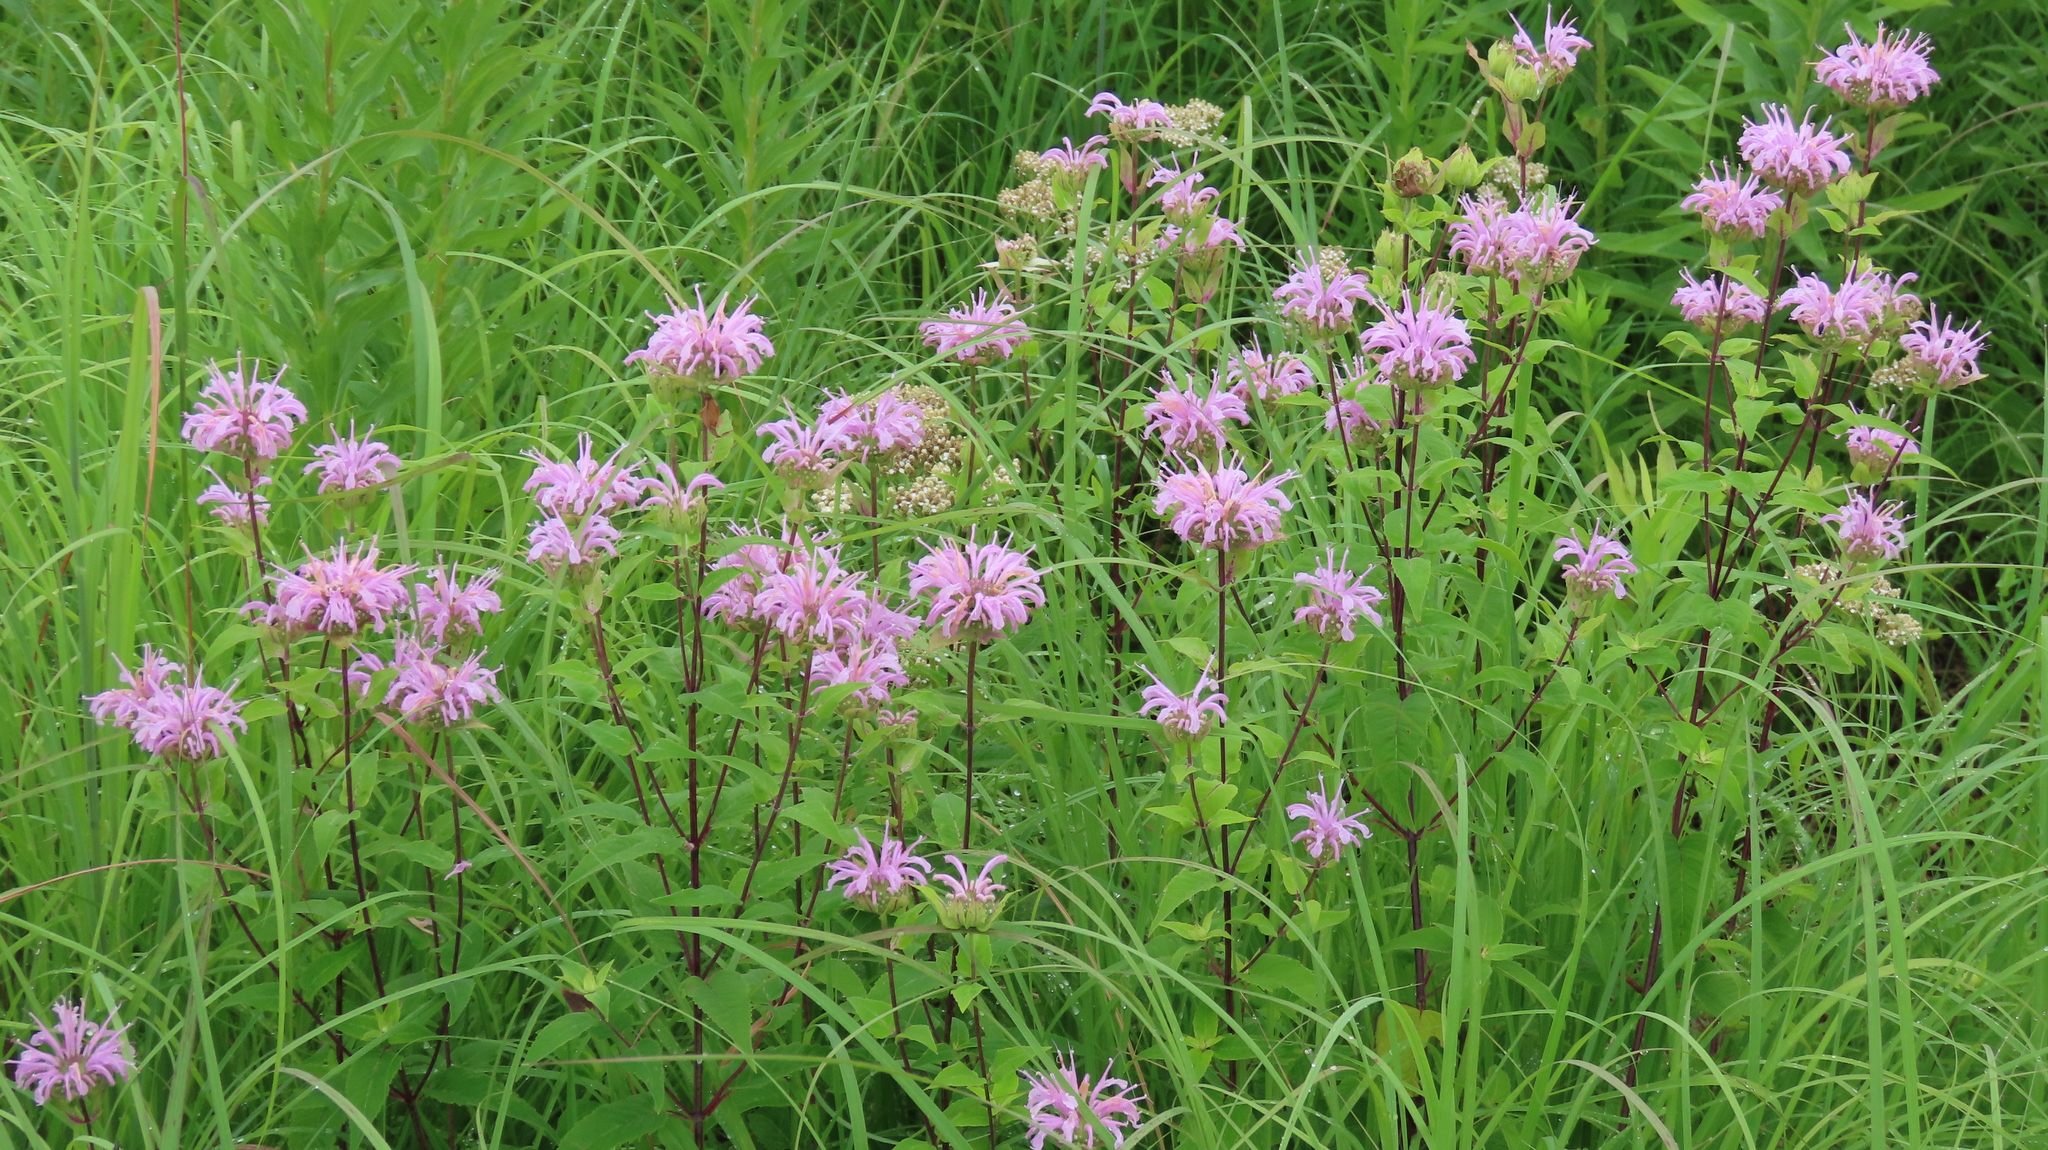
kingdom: Plantae
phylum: Tracheophyta
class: Magnoliopsida
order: Lamiales
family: Lamiaceae
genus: Monarda
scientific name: Monarda fistulosa
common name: Purple beebalm
